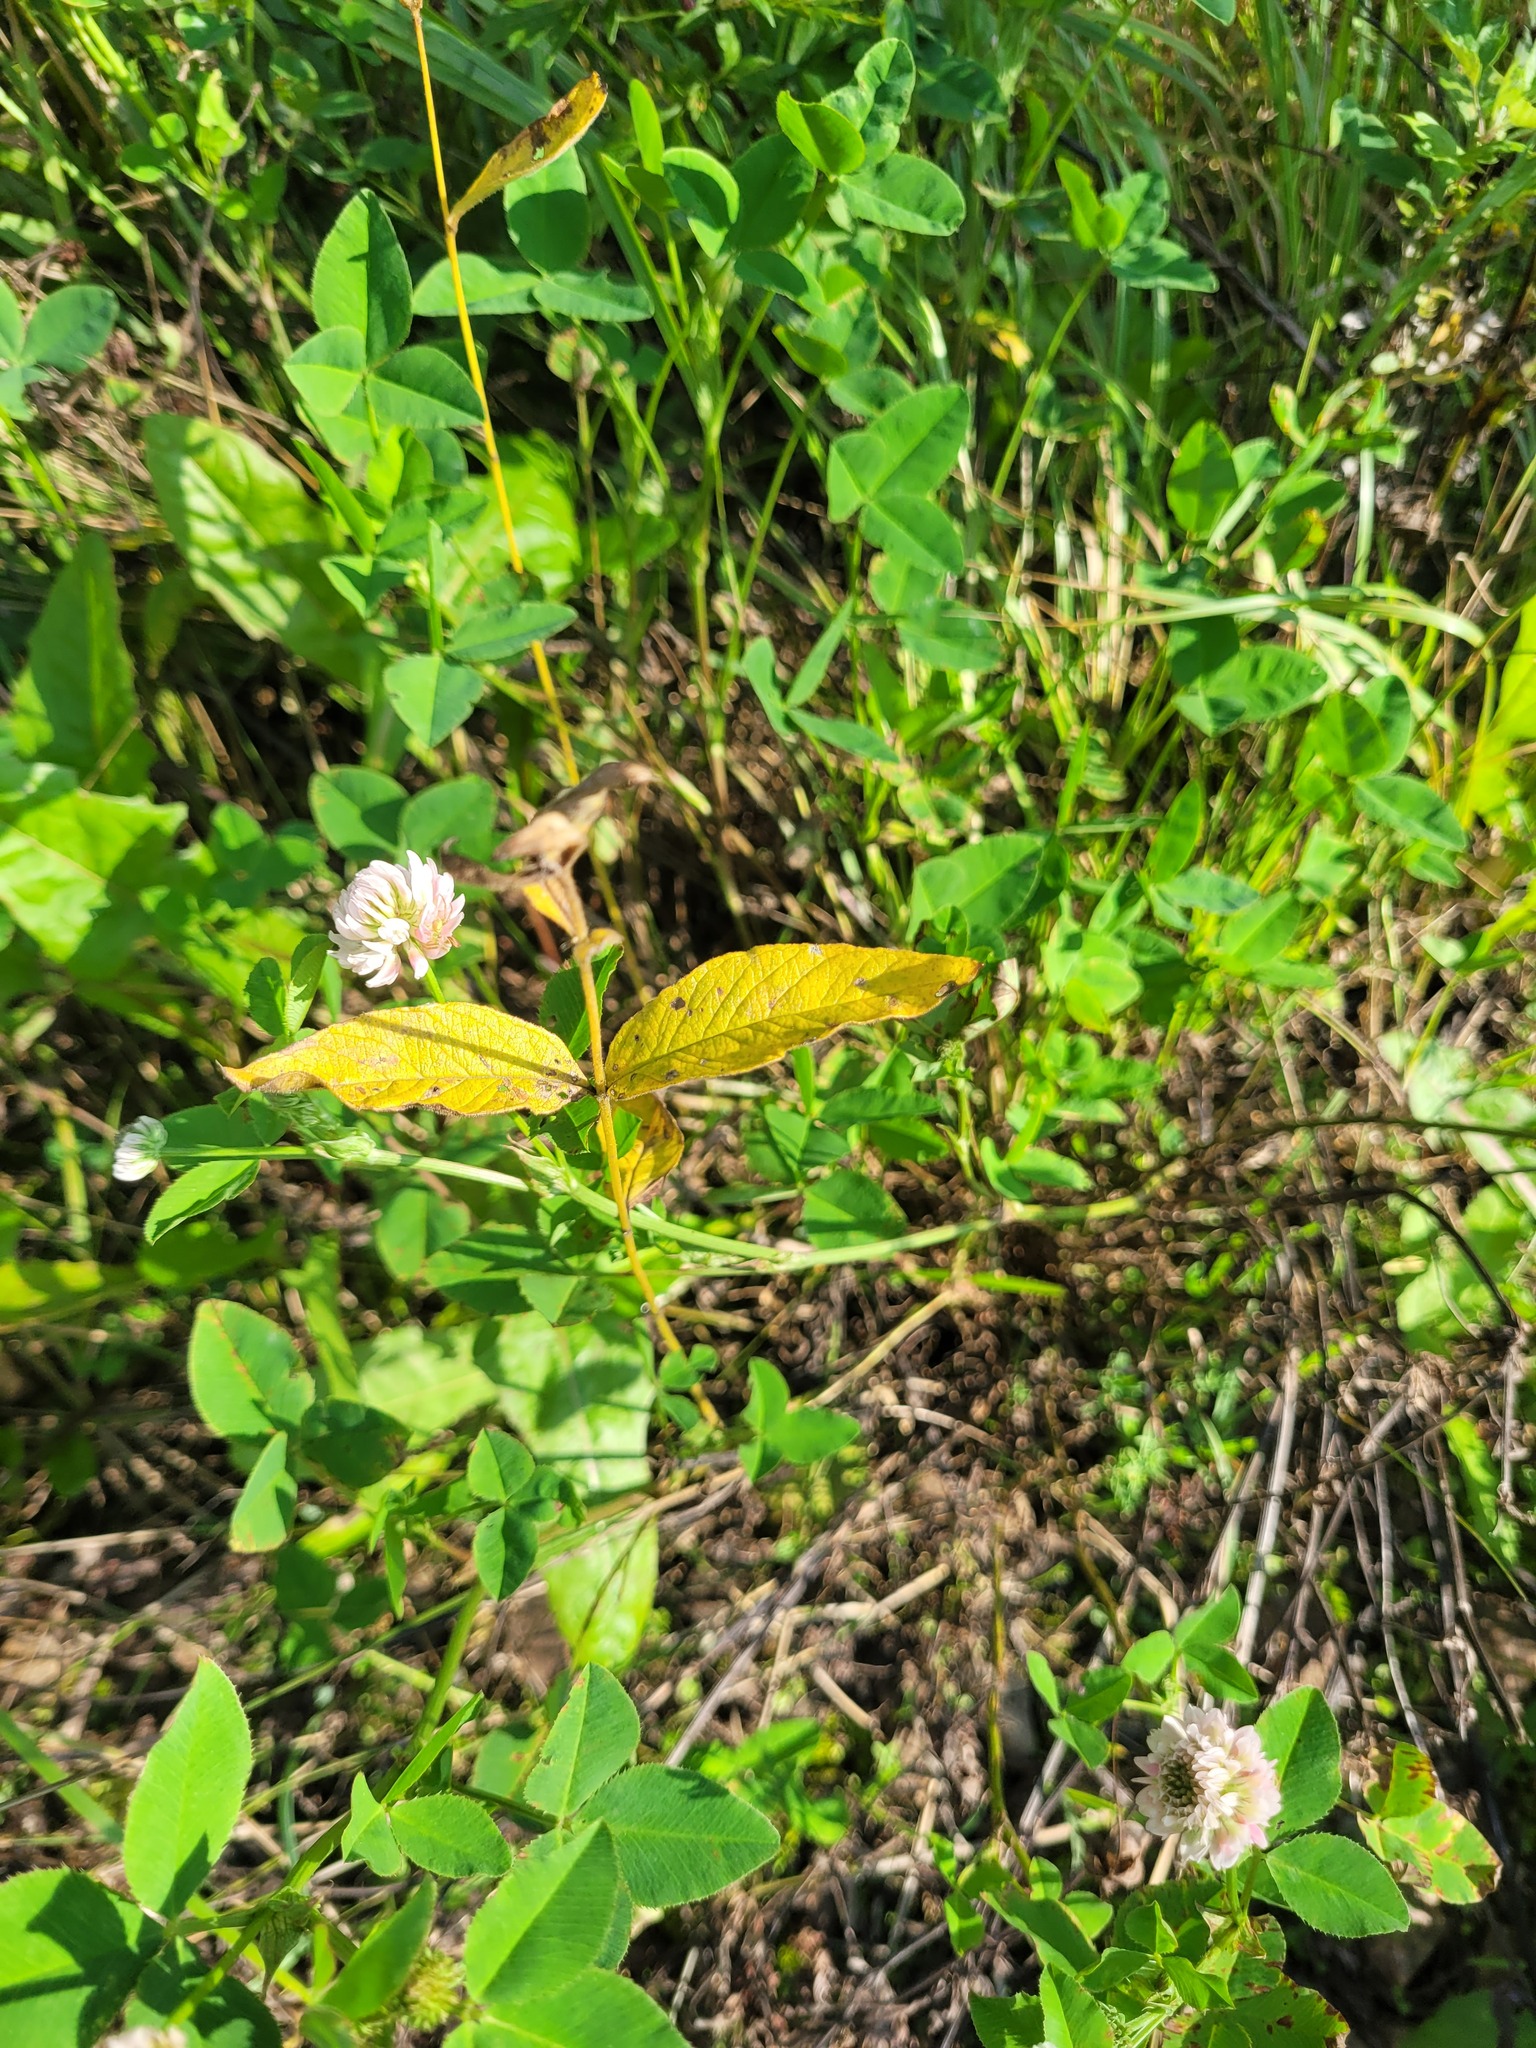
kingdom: Plantae
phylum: Tracheophyta
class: Magnoliopsida
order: Ericales
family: Primulaceae
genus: Lysimachia
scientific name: Lysimachia vulgaris
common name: Yellow loosestrife
